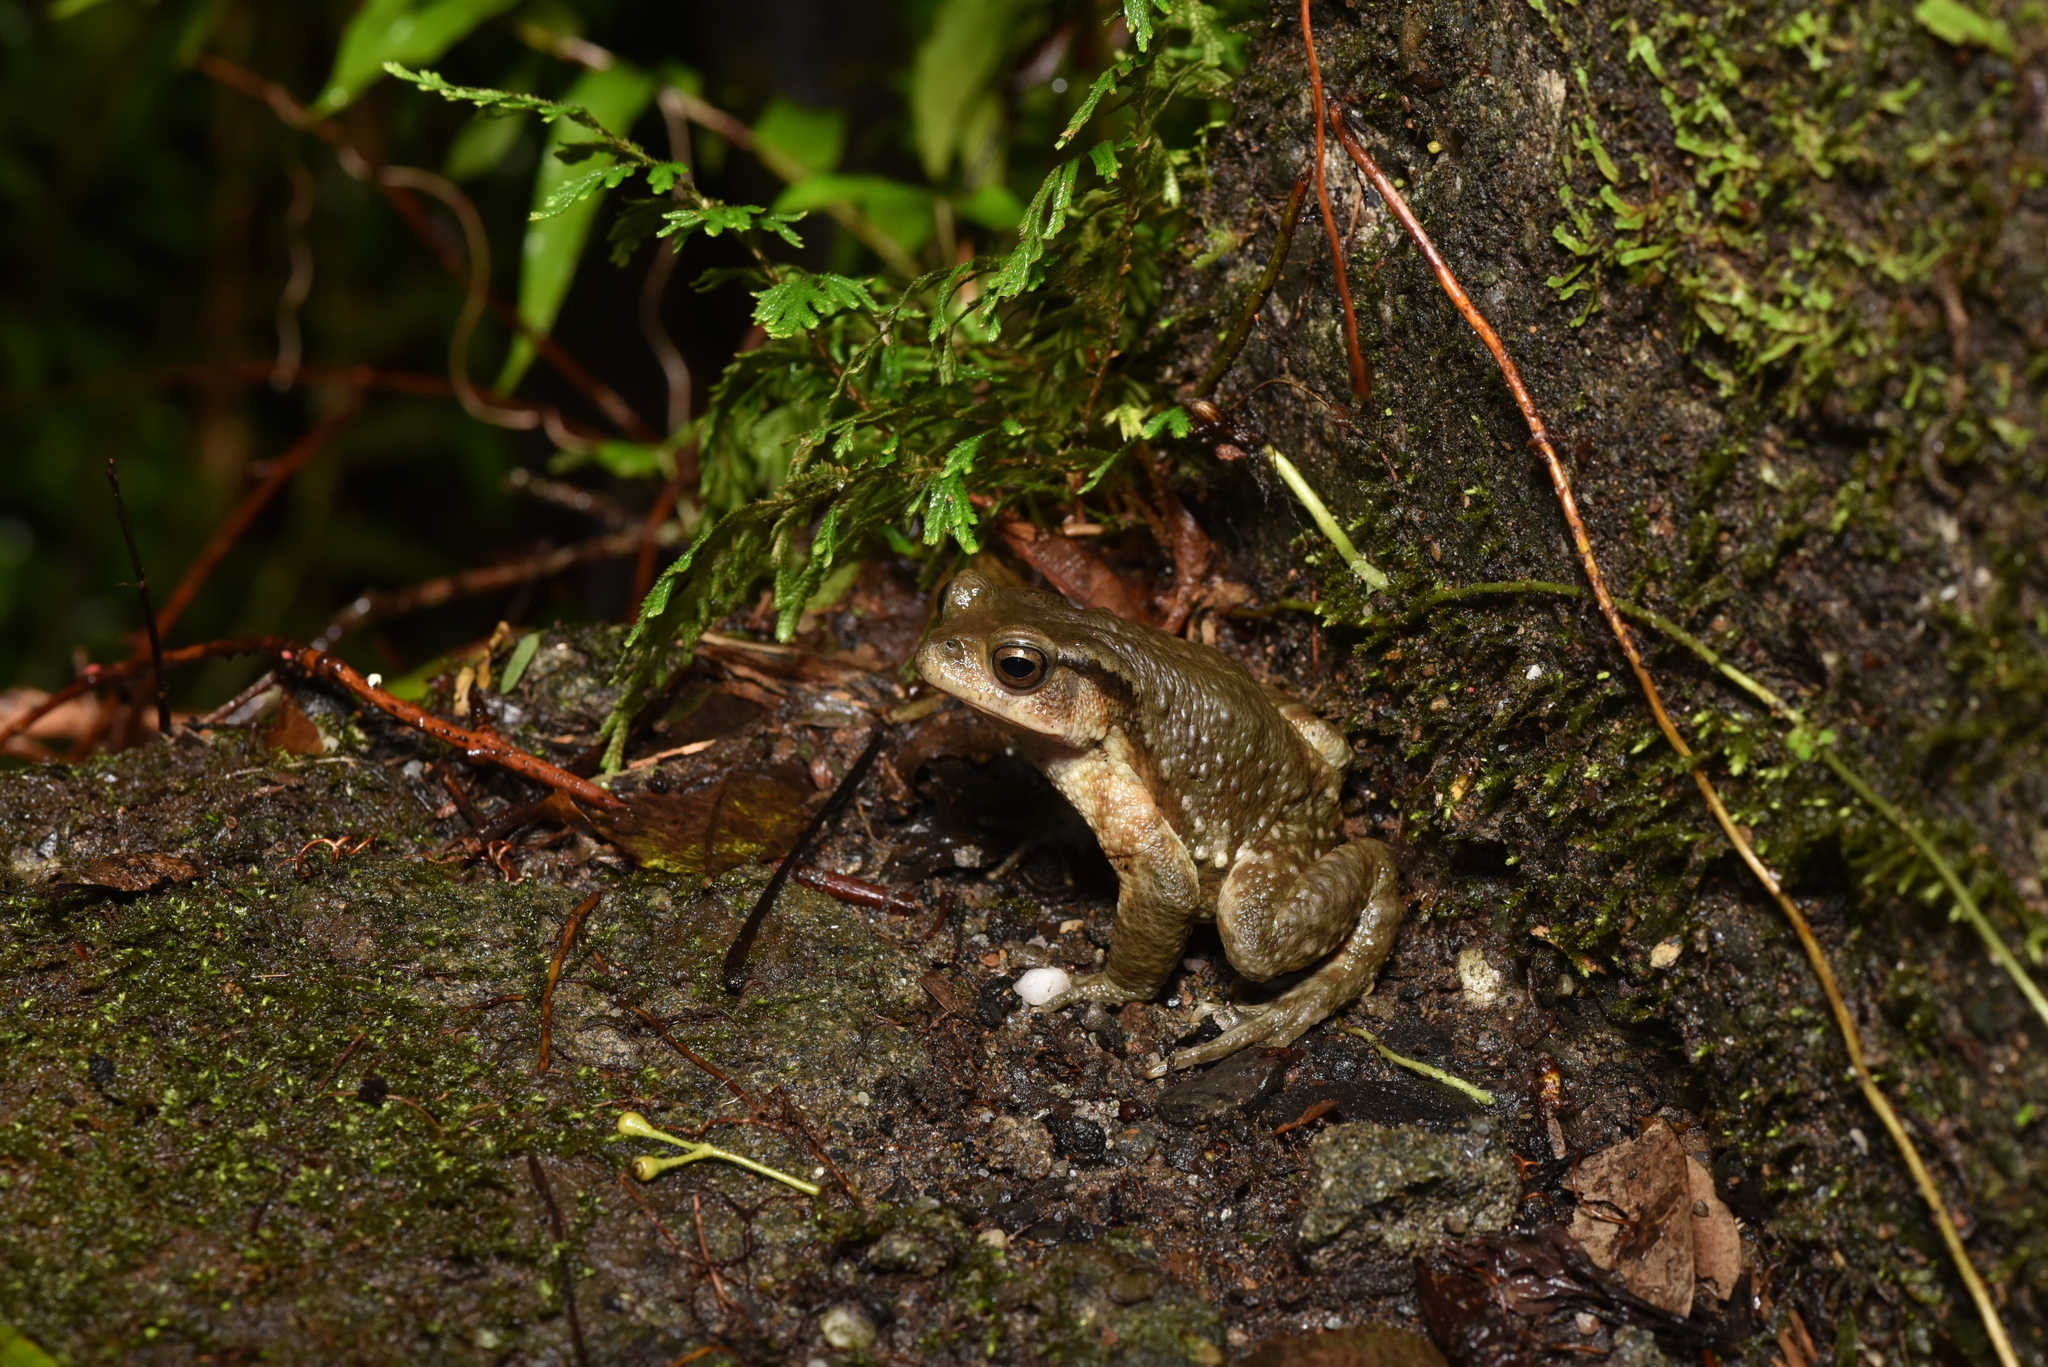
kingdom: Animalia
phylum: Chordata
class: Amphibia
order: Anura
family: Bufonidae
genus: Bufo
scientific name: Bufo bankorensis
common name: Bankor toad
